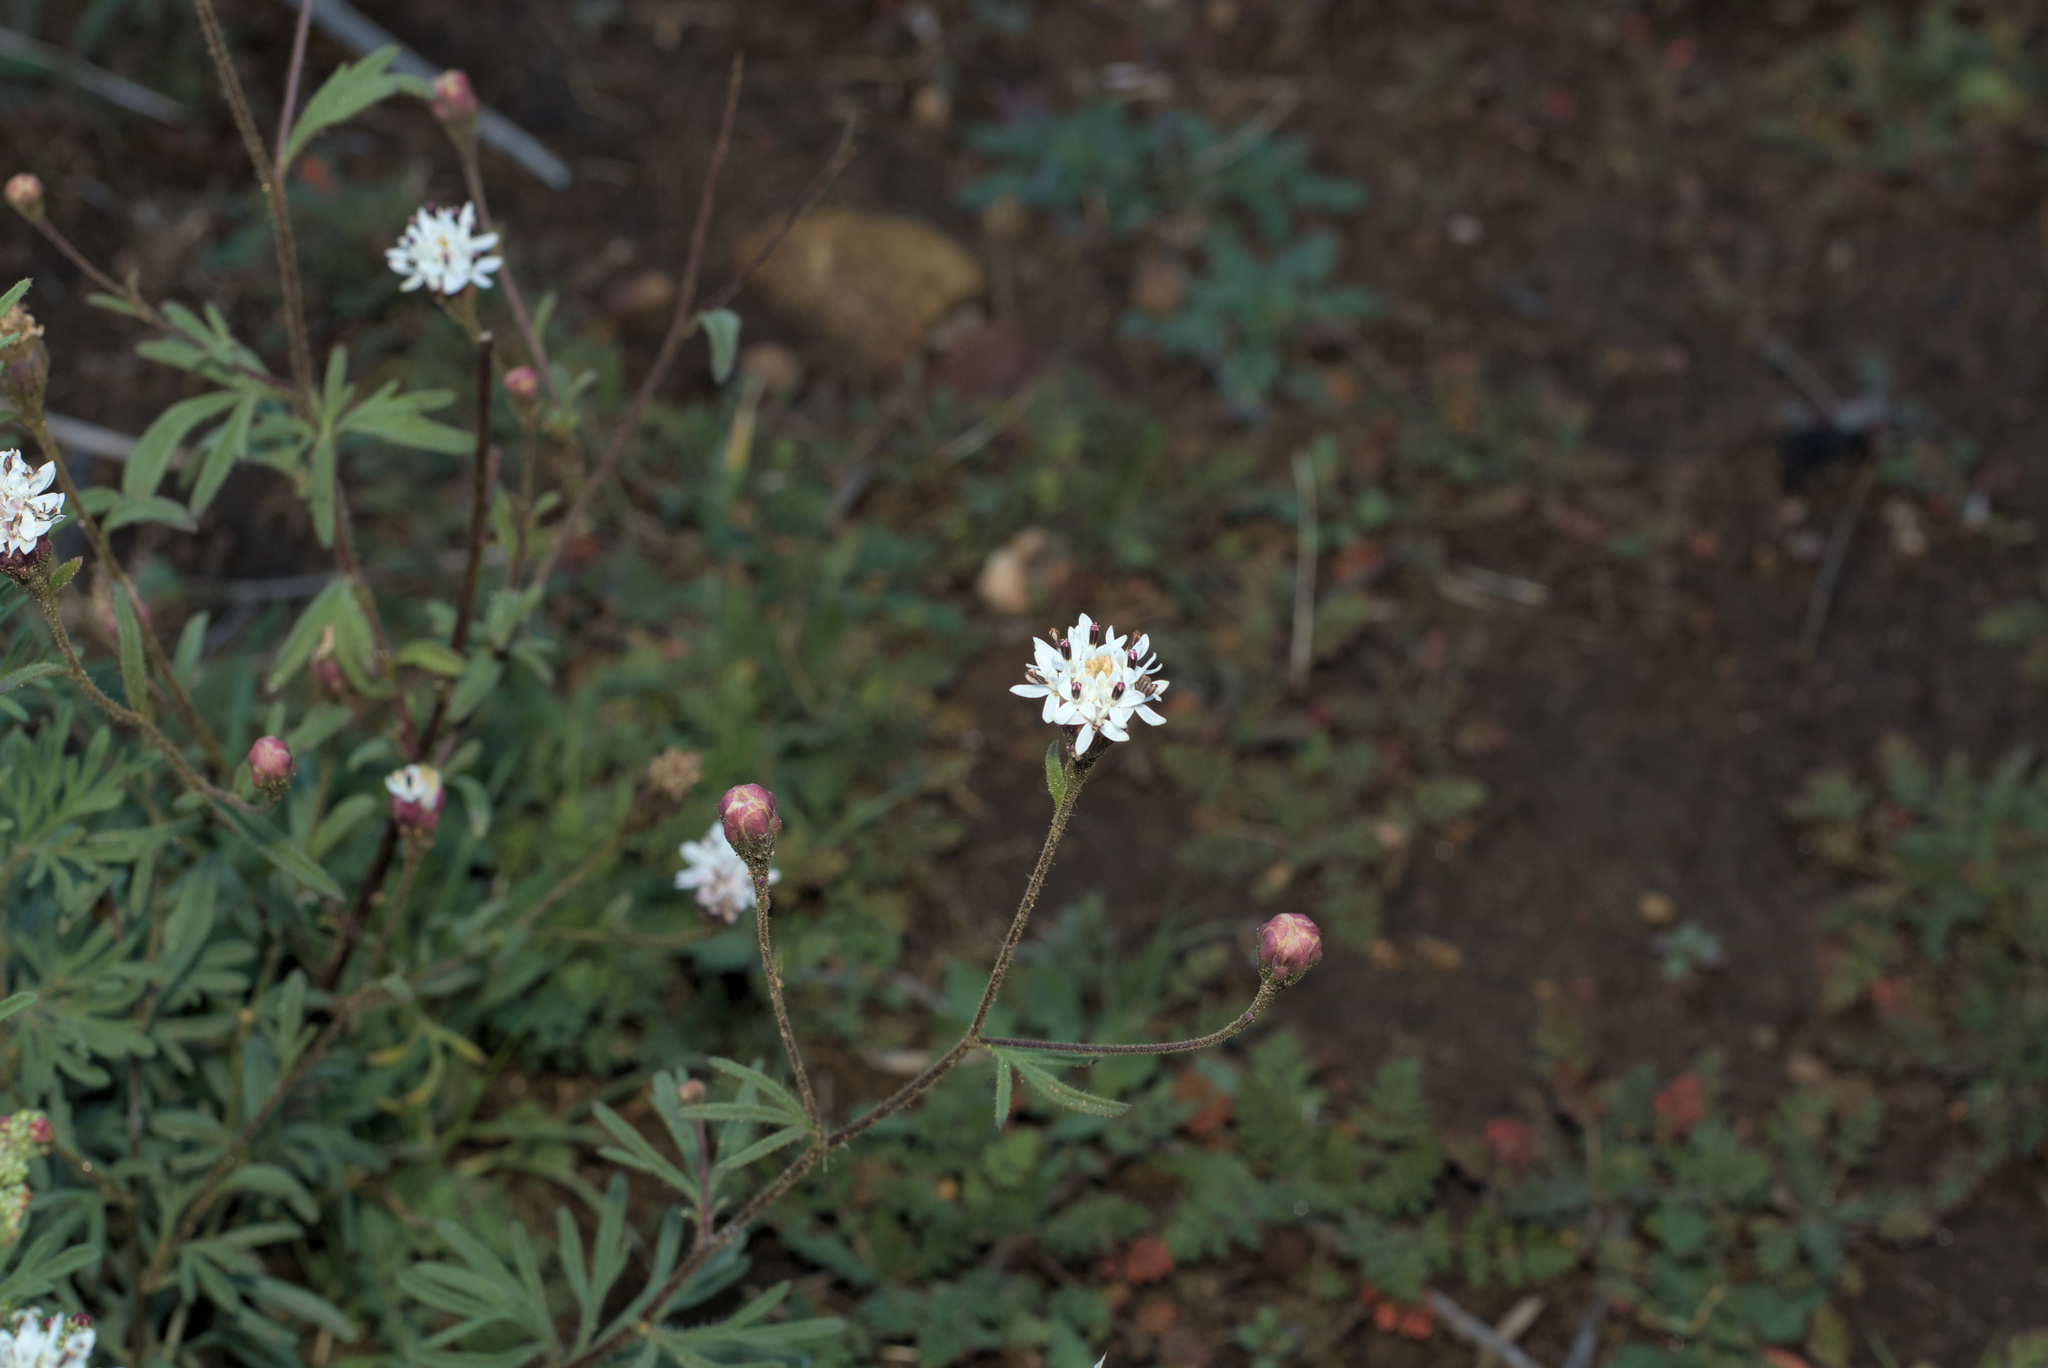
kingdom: Plantae
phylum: Tracheophyta
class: Magnoliopsida
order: Asterales
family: Asteraceae
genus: Hymenothrix
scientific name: Hymenothrix wrightii
